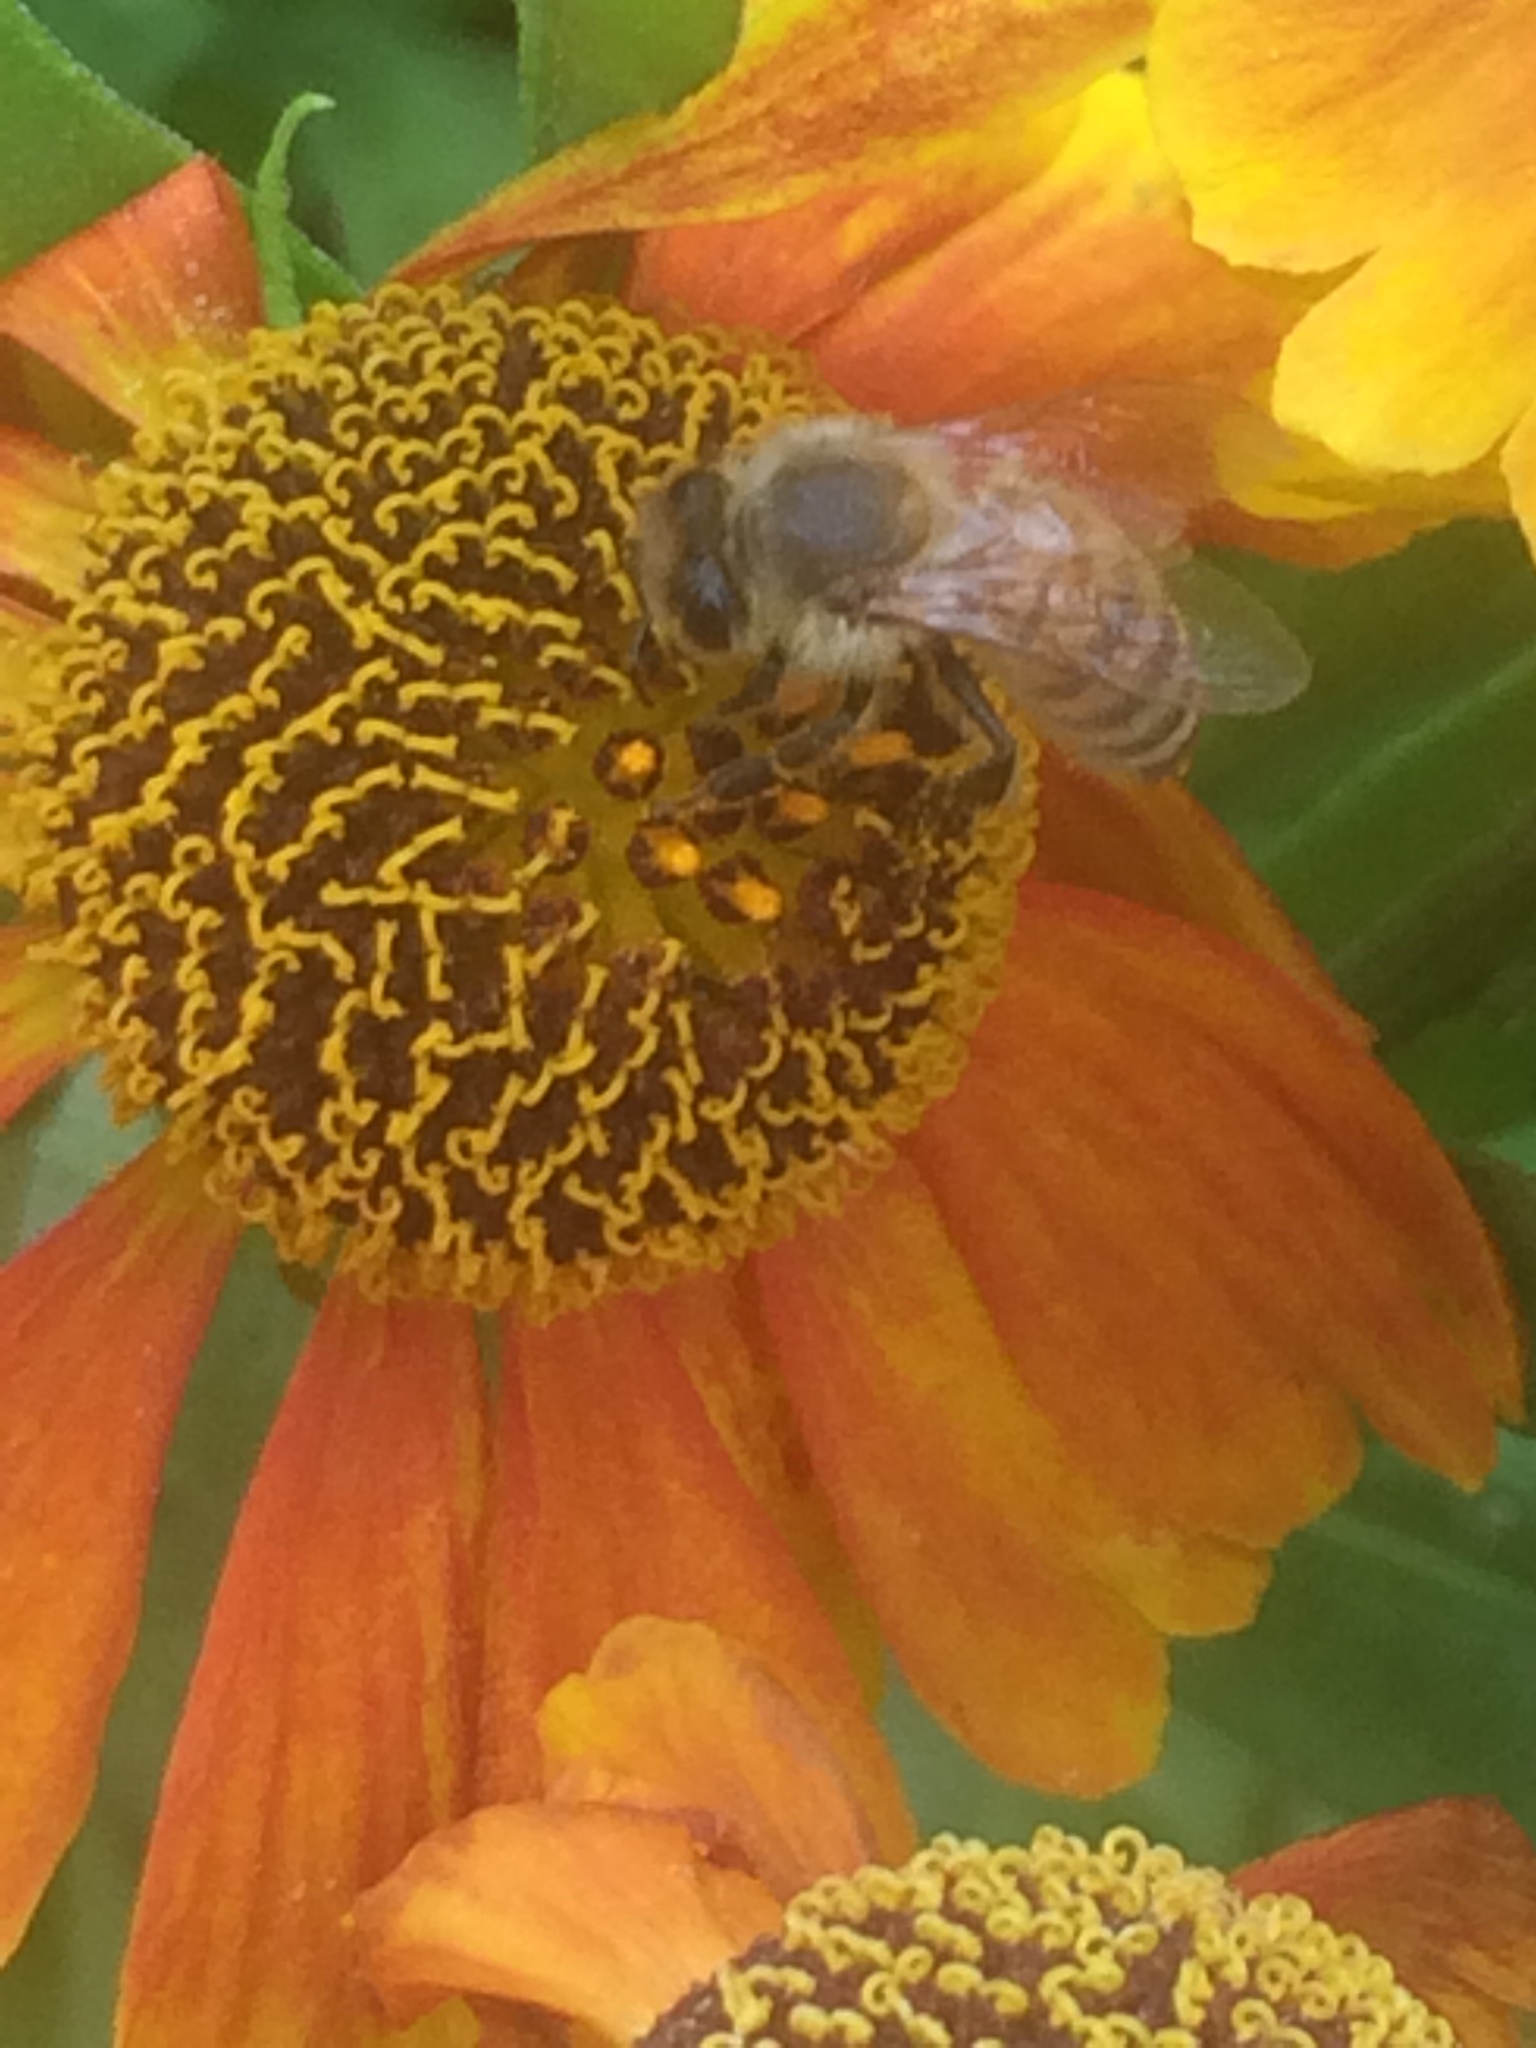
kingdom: Animalia
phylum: Arthropoda
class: Insecta
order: Hymenoptera
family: Apidae
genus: Apis
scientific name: Apis mellifera
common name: Honey bee
